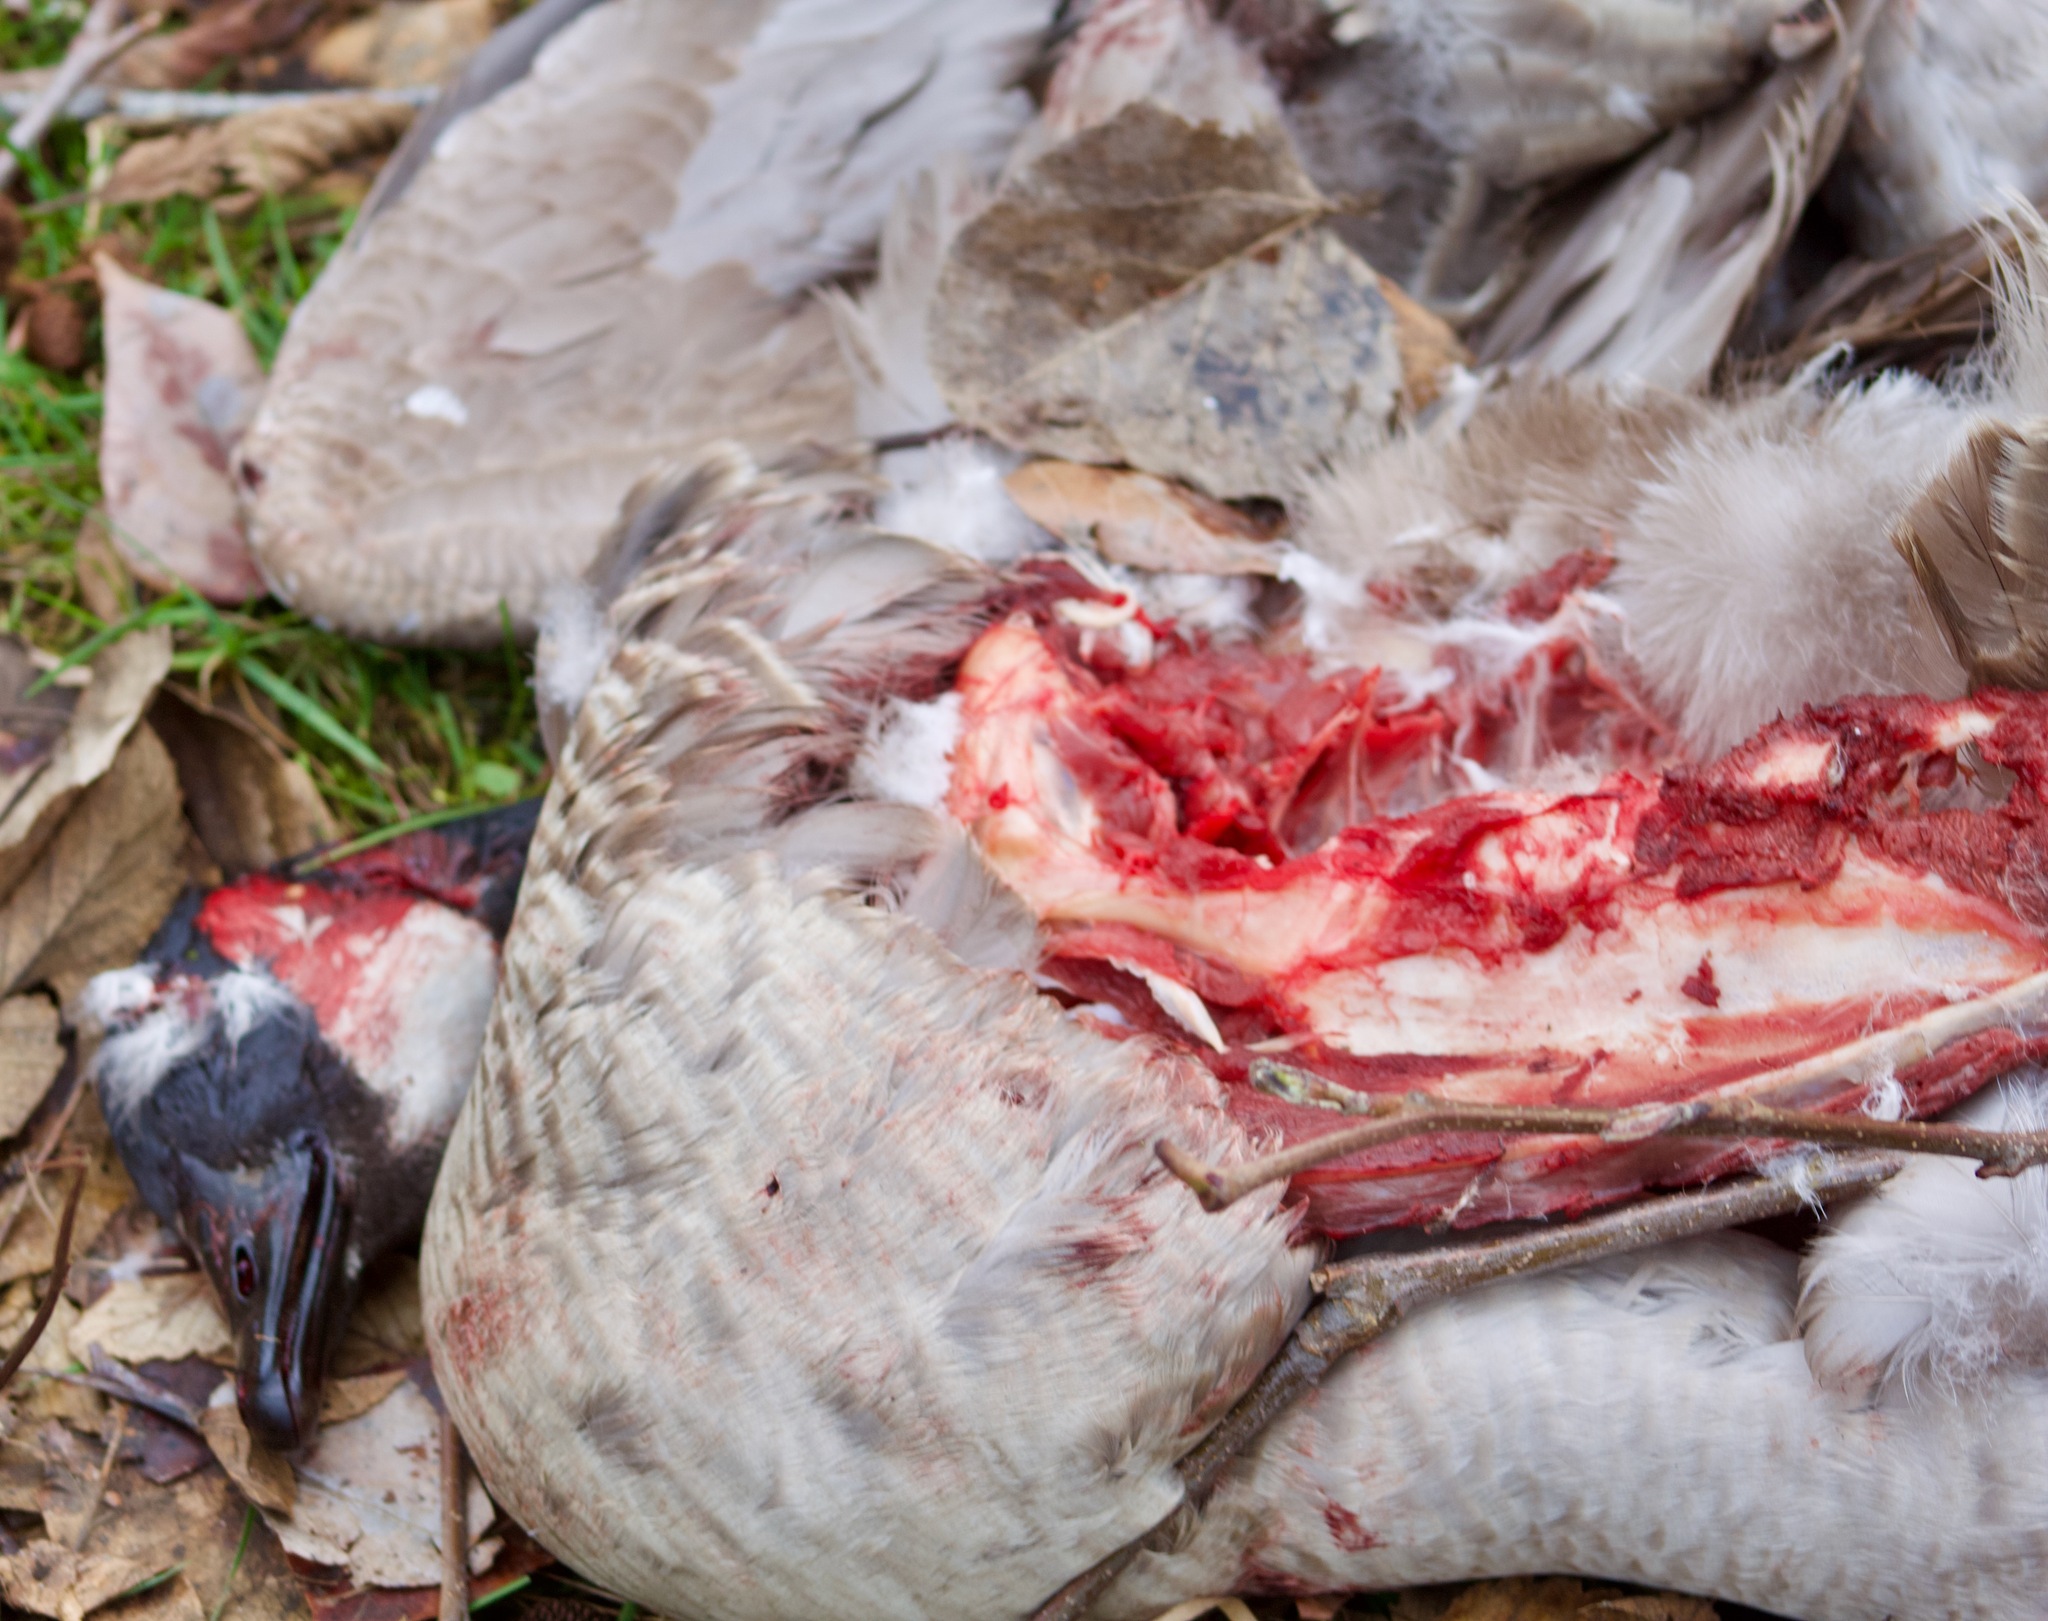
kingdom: Animalia
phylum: Chordata
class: Aves
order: Anseriformes
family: Anatidae
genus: Branta
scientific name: Branta canadensis
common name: Canada goose
